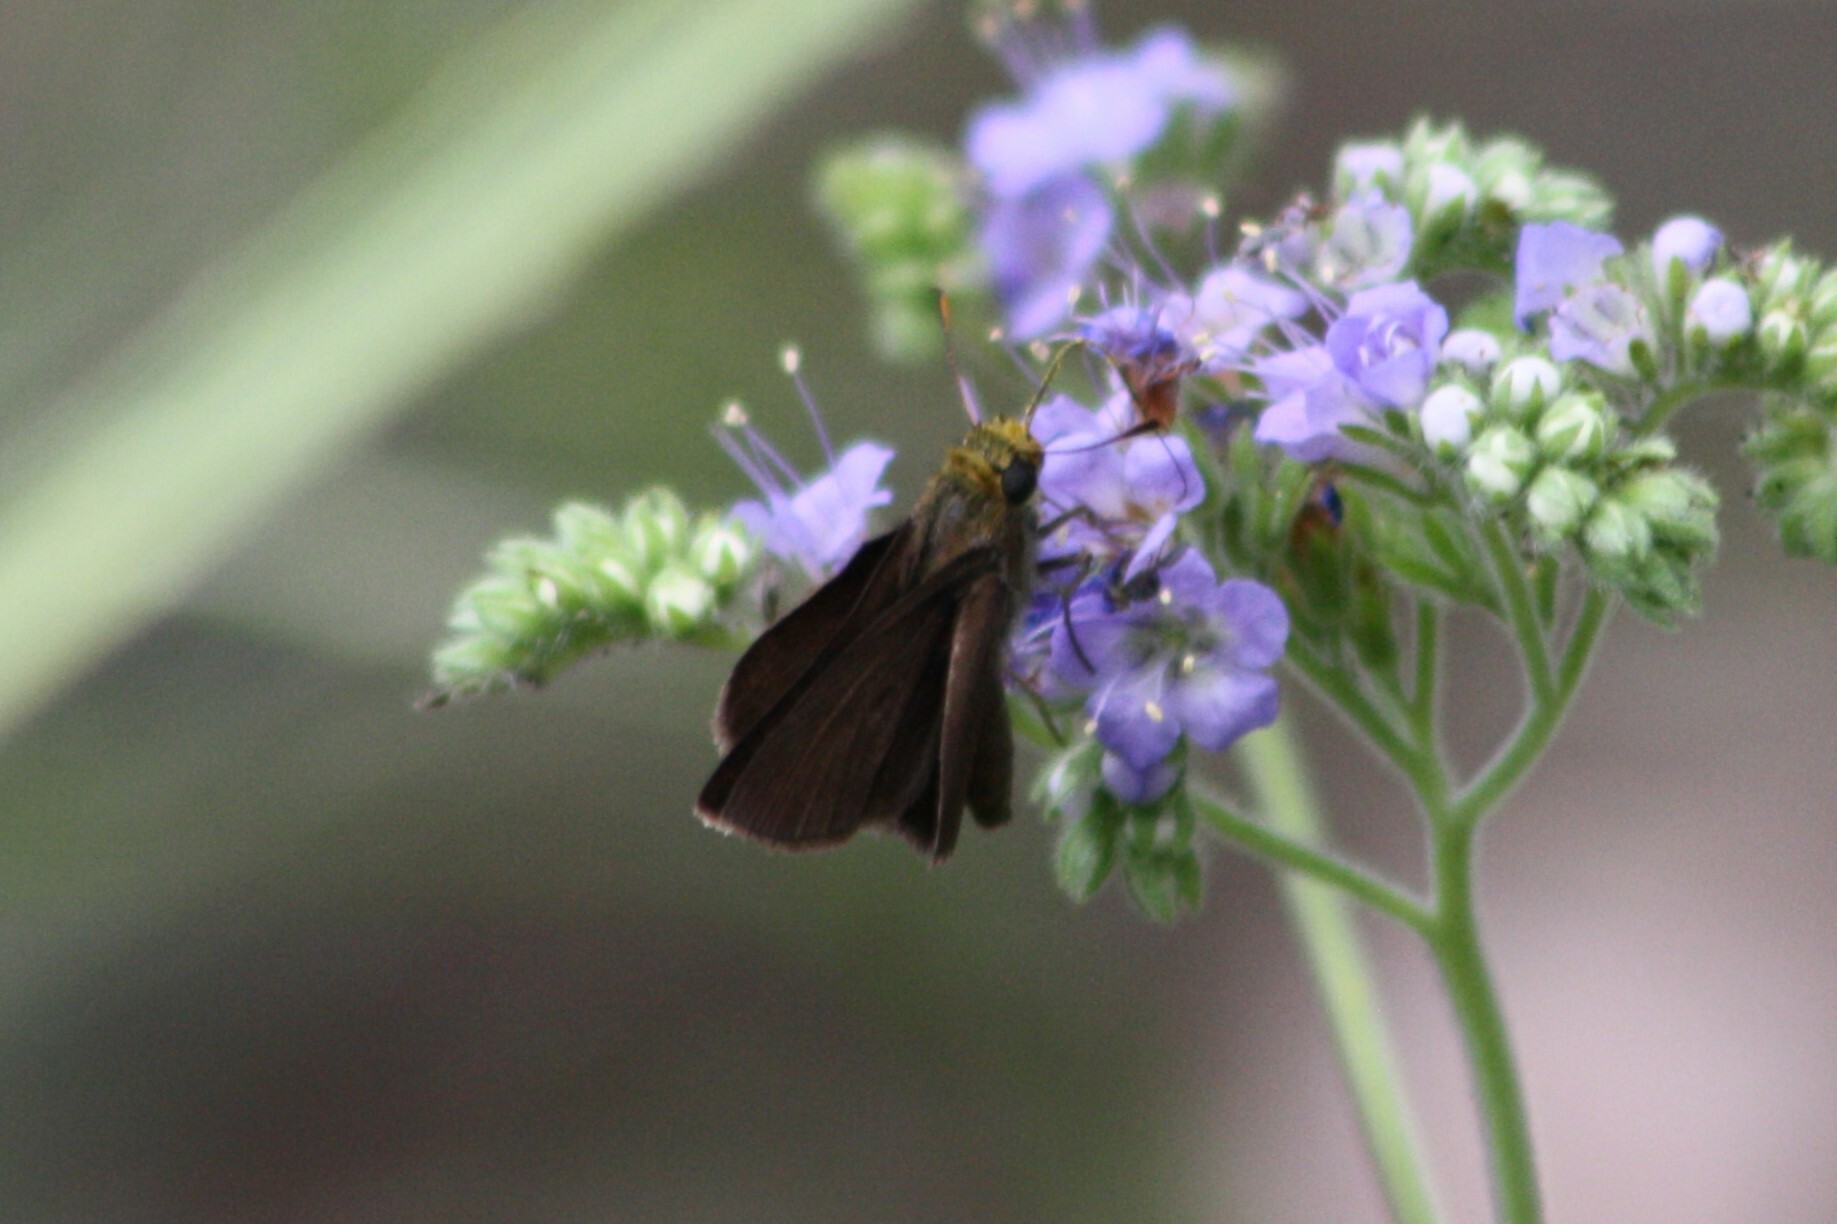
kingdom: Animalia
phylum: Arthropoda
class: Insecta
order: Lepidoptera
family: Hesperiidae
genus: Euphyes
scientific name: Euphyes vestris
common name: Dun skipper
